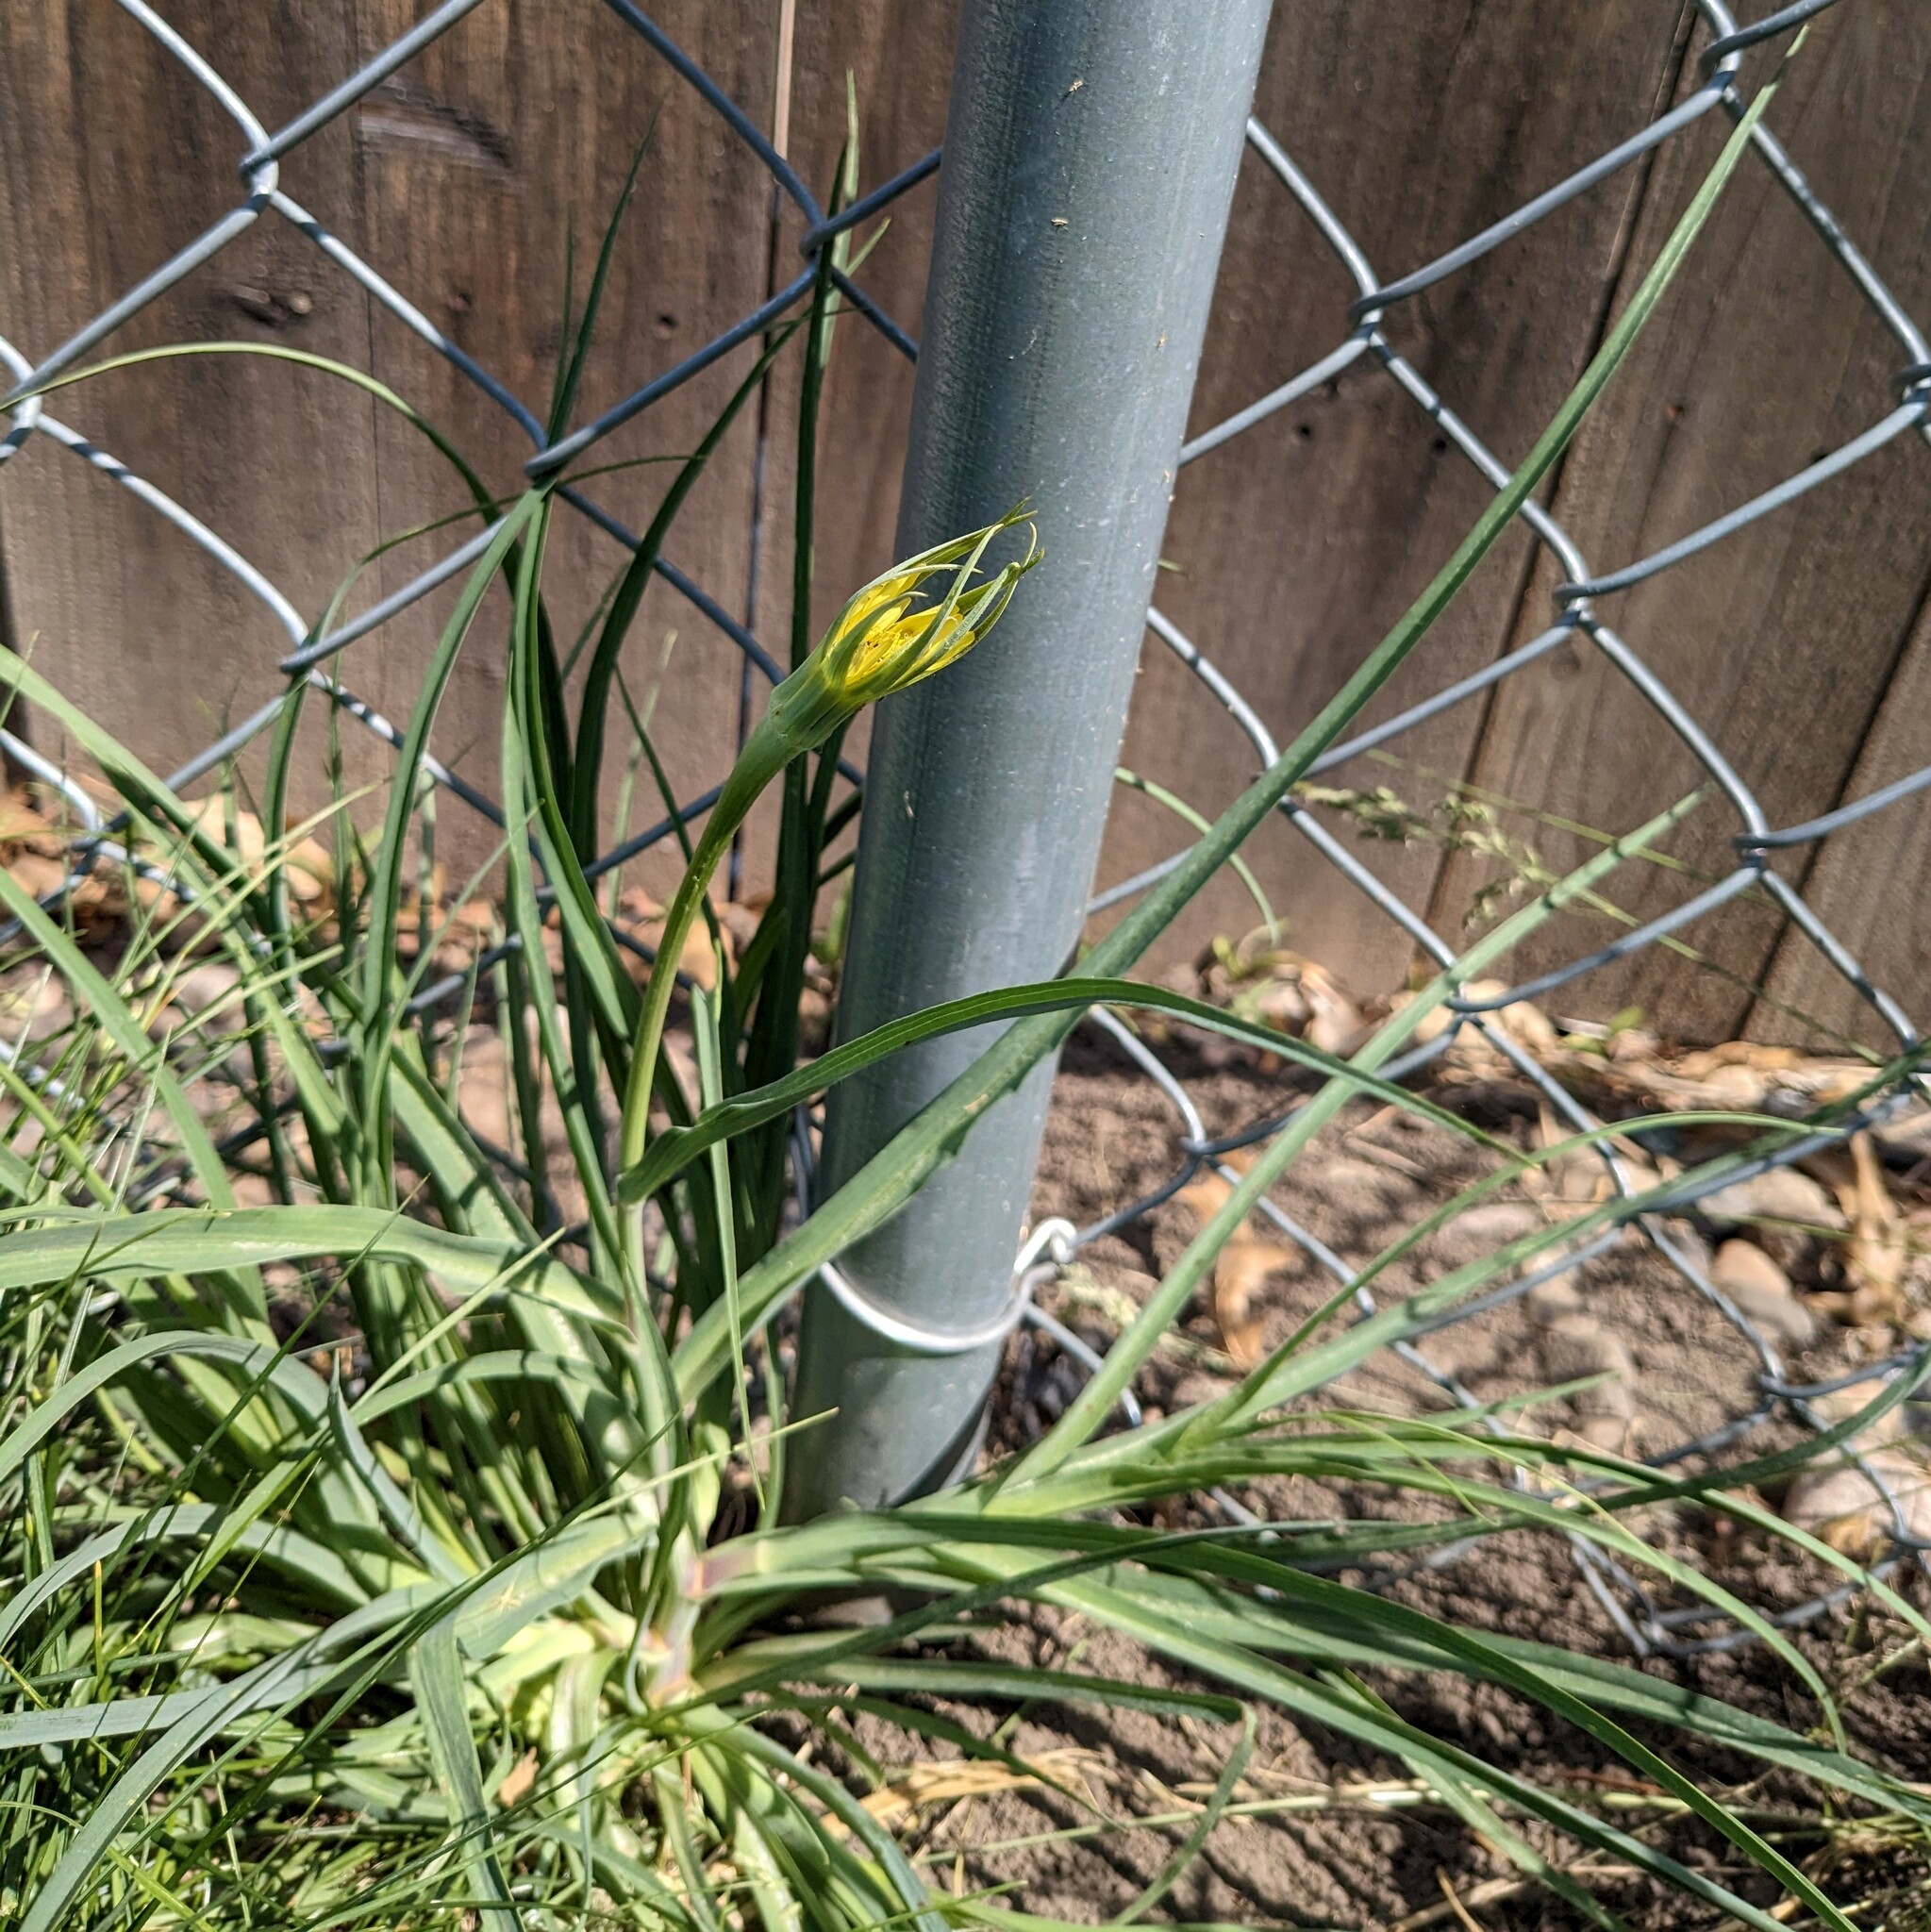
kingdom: Plantae
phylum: Tracheophyta
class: Magnoliopsida
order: Asterales
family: Asteraceae
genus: Tragopogon
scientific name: Tragopogon dubius
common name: Yellow salsify
